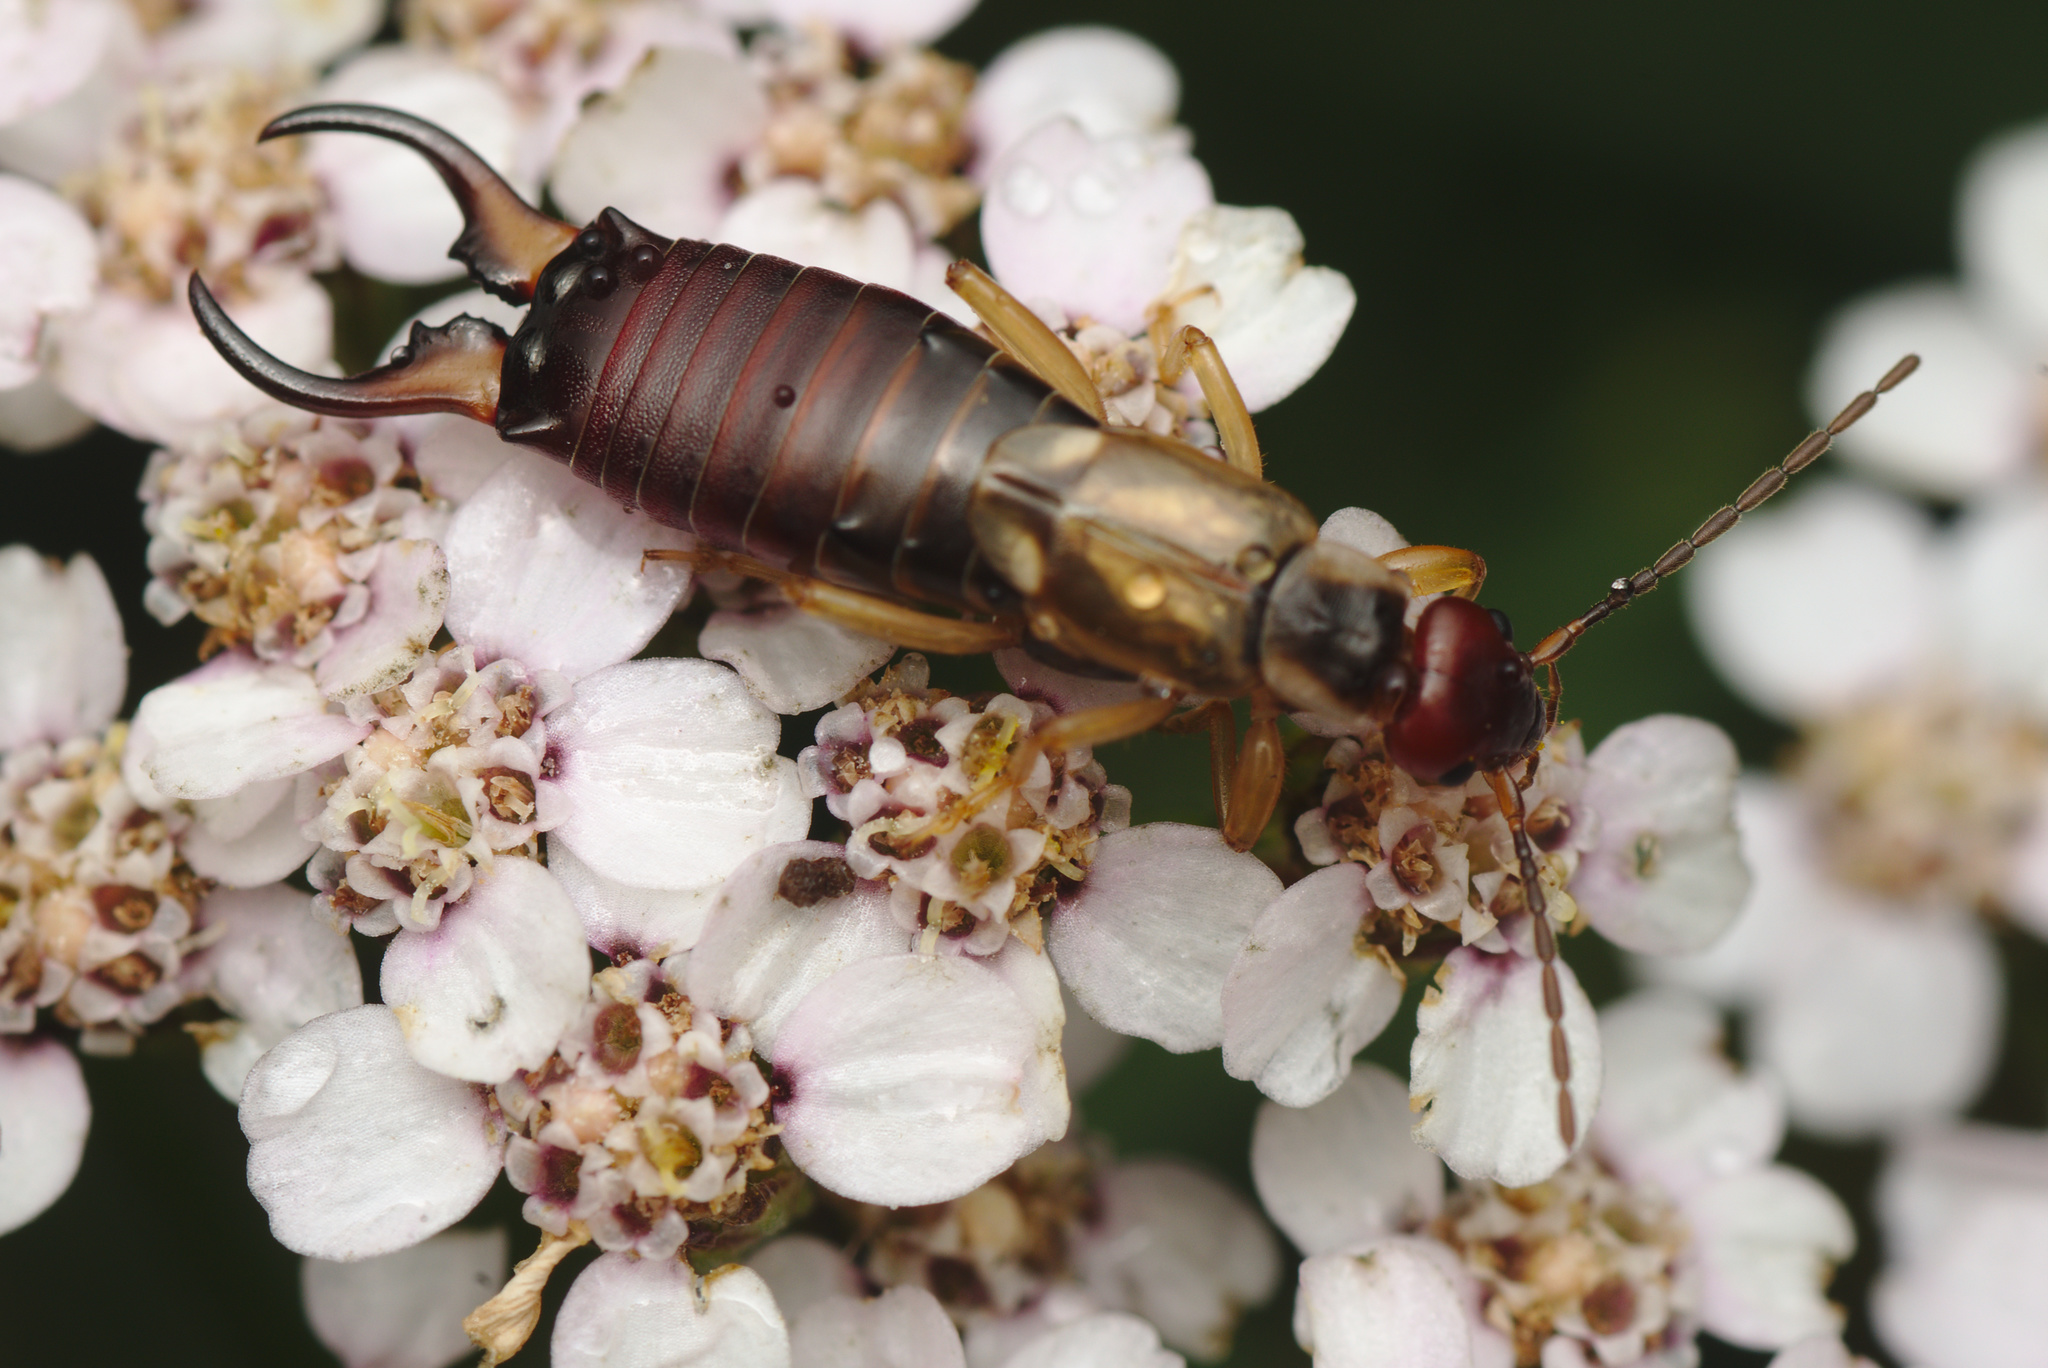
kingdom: Animalia
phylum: Arthropoda
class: Insecta
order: Dermaptera
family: Forficulidae
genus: Forficula
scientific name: Forficula
